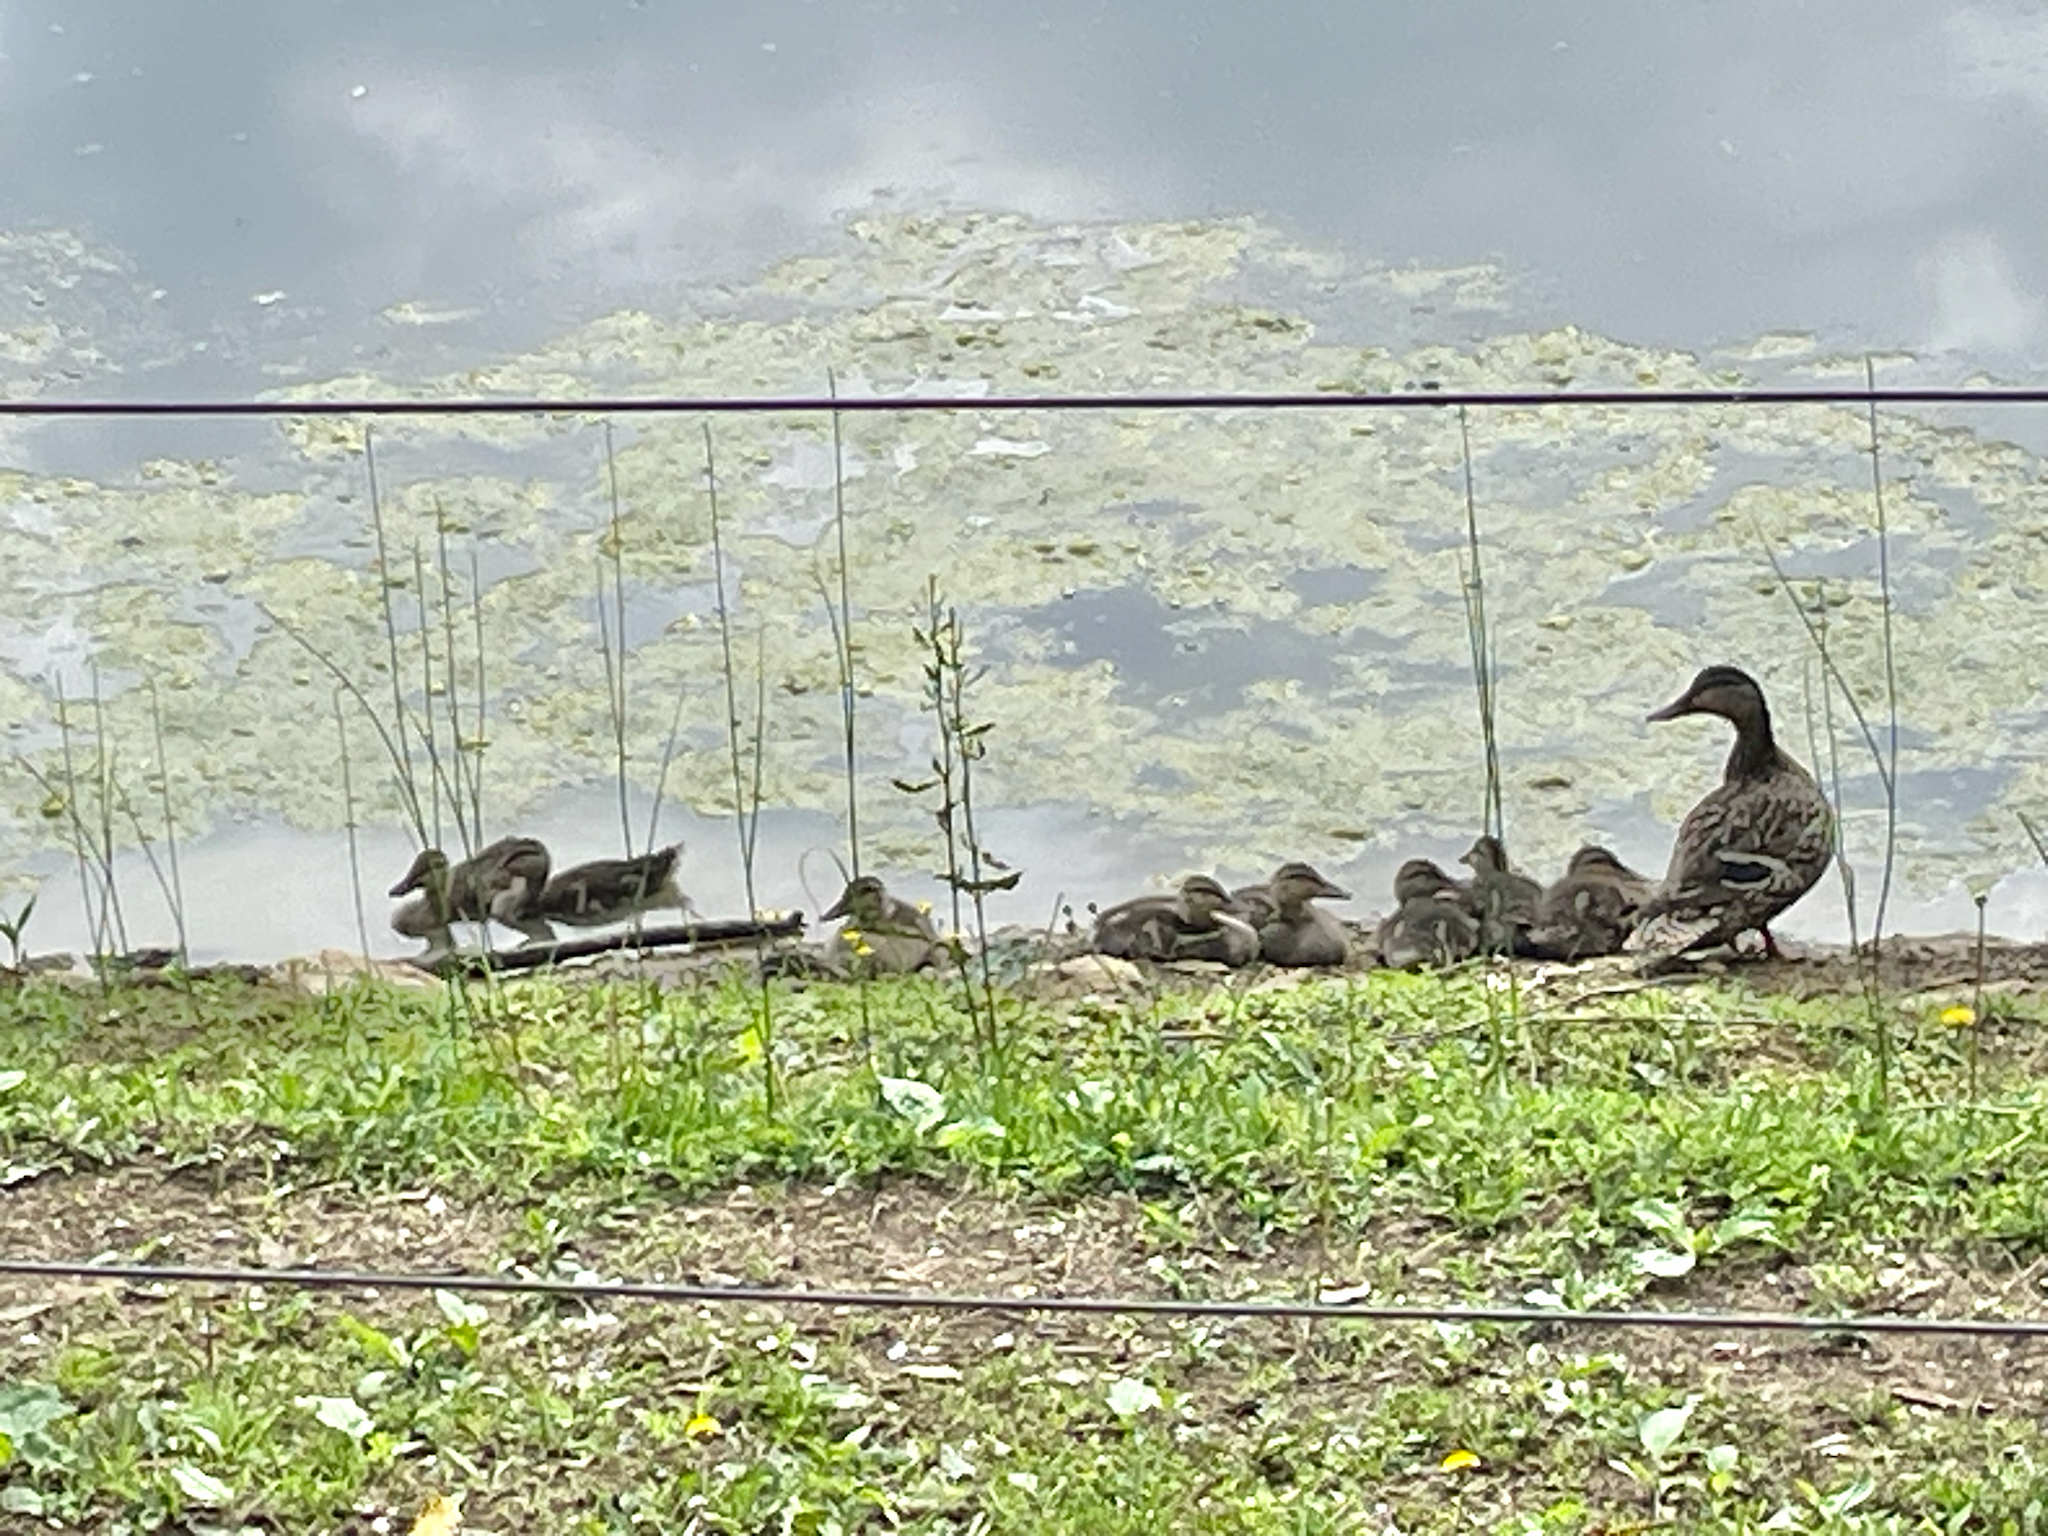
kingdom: Animalia
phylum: Chordata
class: Aves
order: Anseriformes
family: Anatidae
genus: Anas
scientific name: Anas platyrhynchos
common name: Mallard
